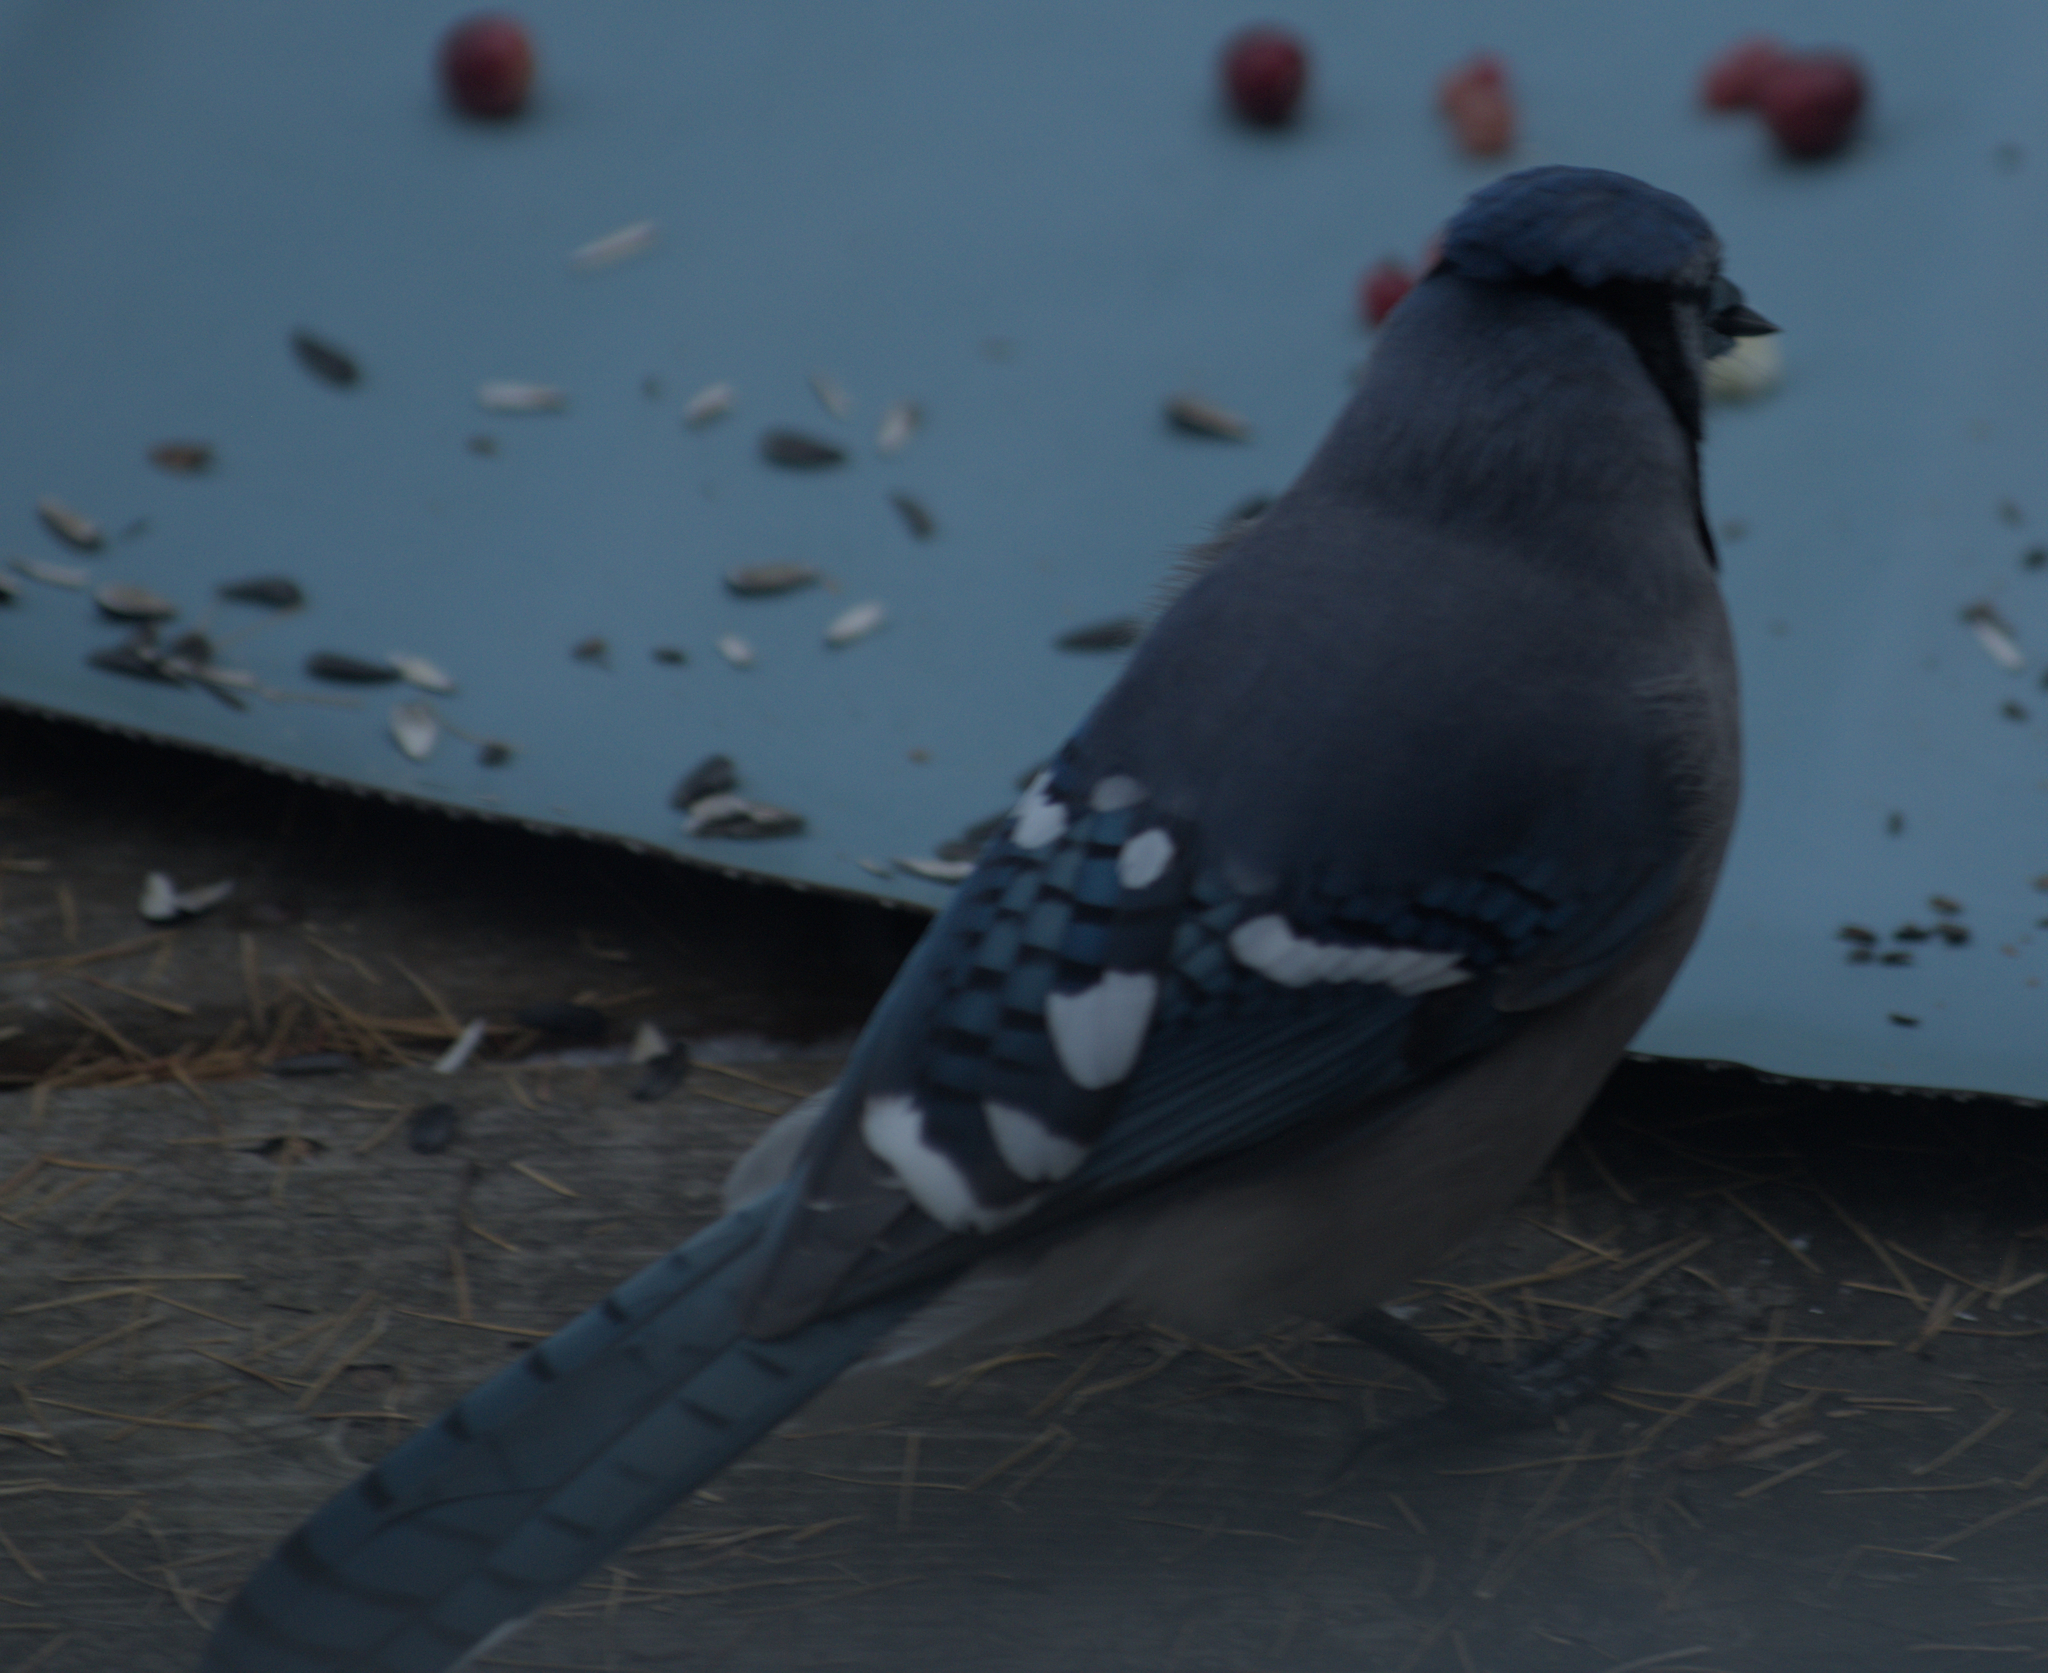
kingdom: Animalia
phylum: Chordata
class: Aves
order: Passeriformes
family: Corvidae
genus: Cyanocitta
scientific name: Cyanocitta cristata
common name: Blue jay
